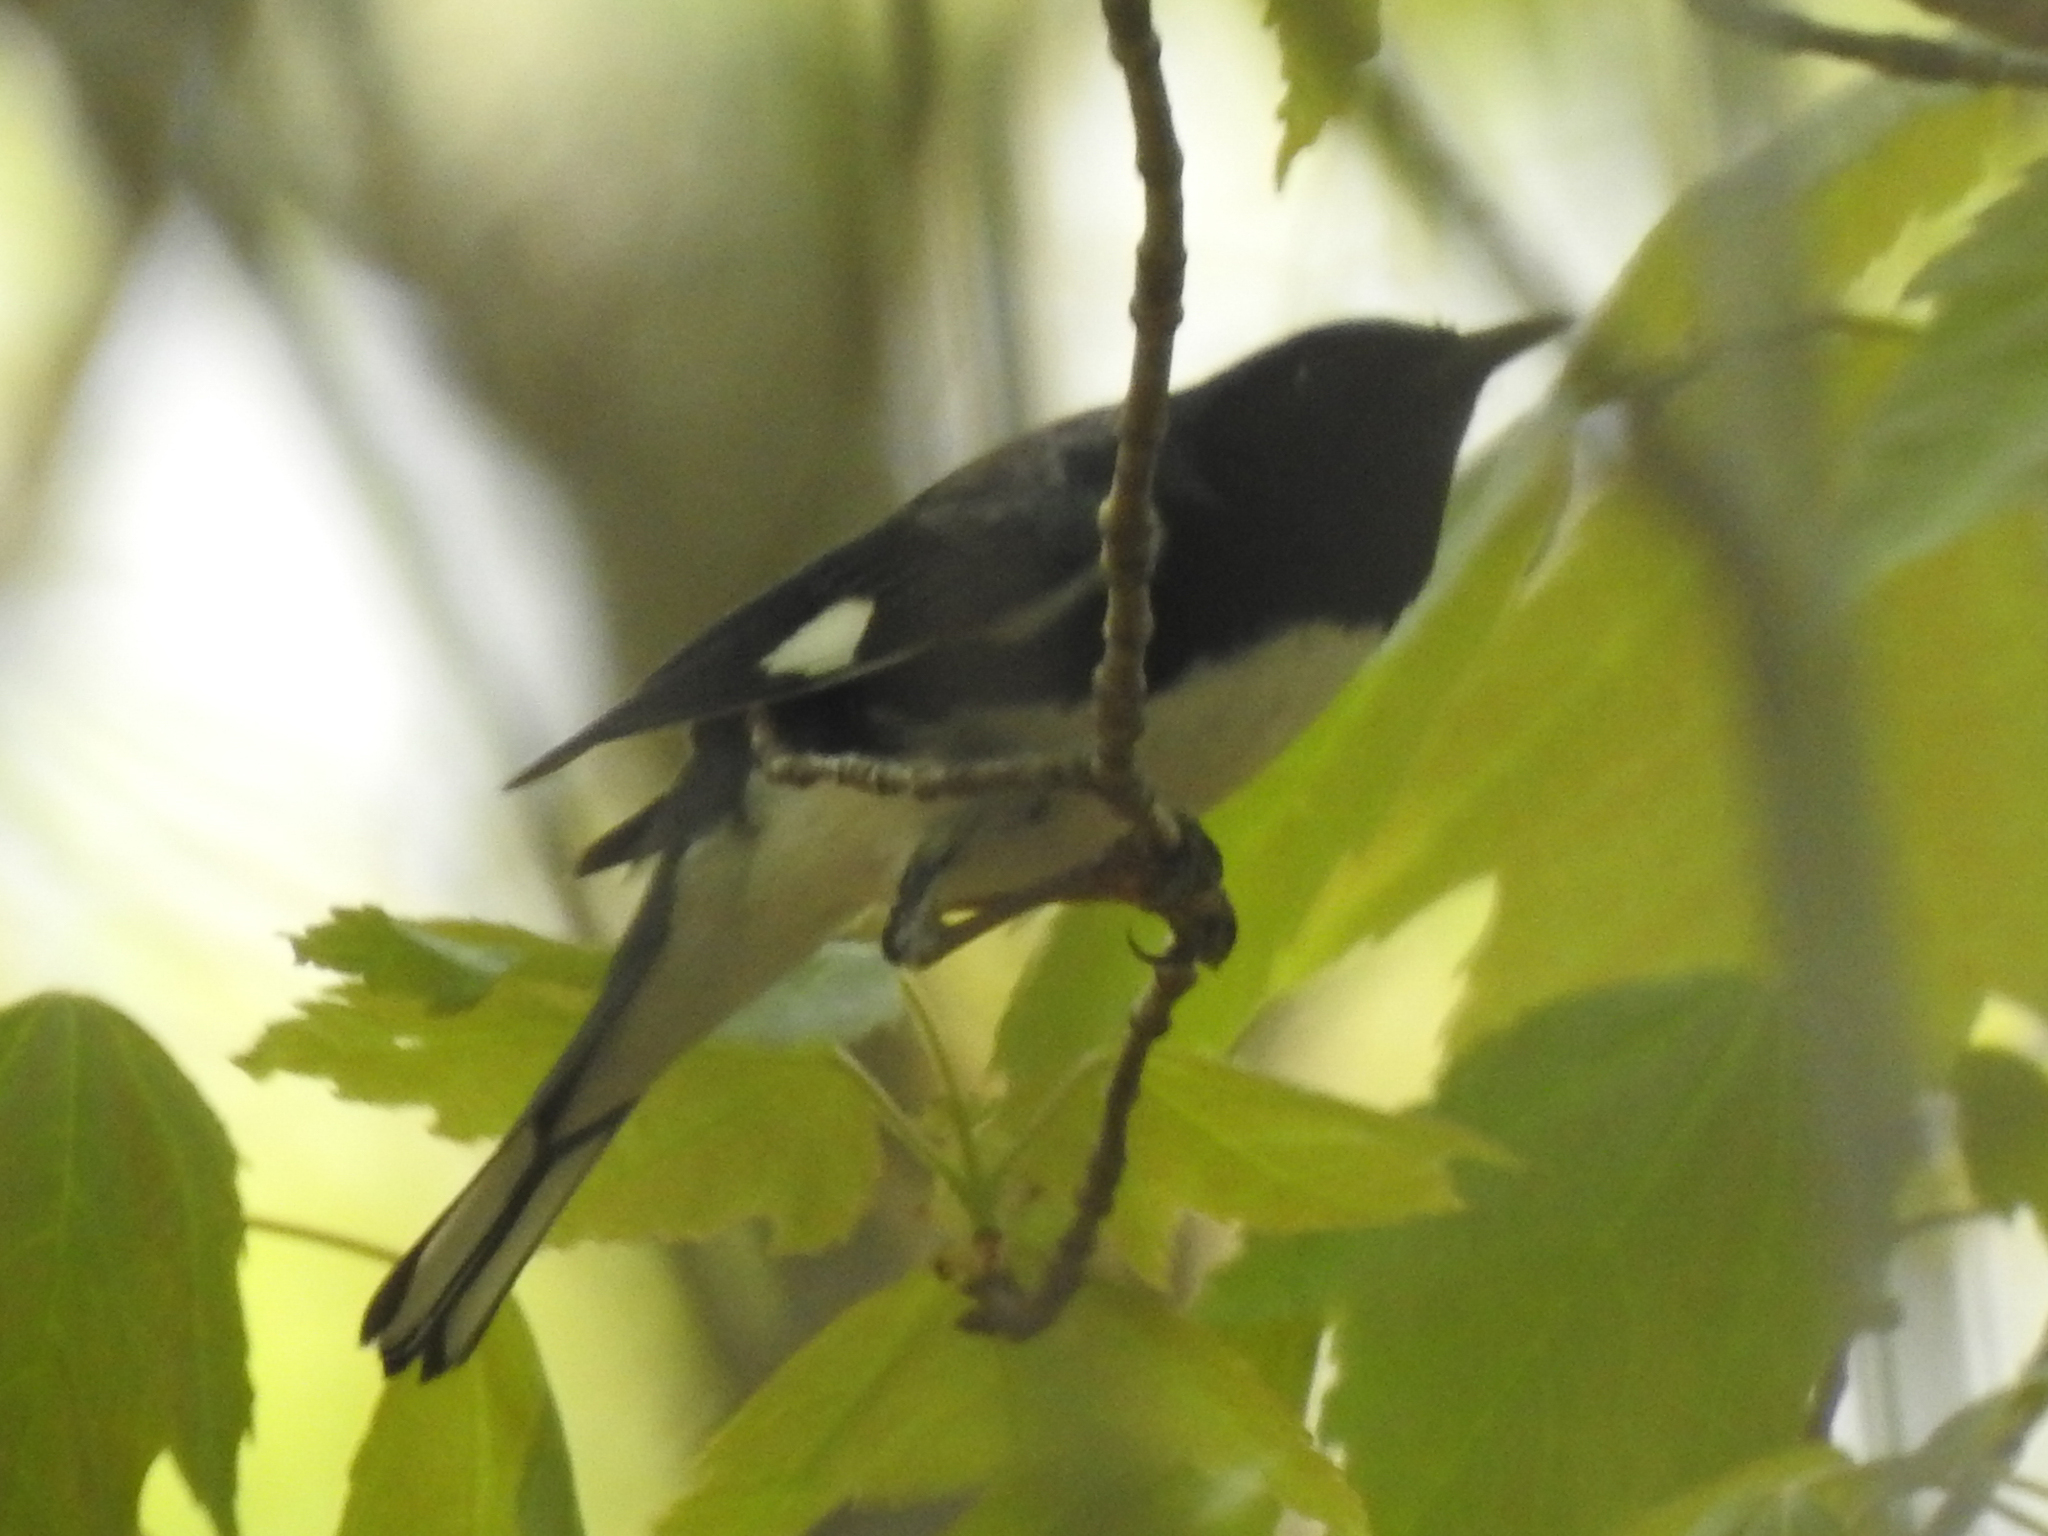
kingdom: Animalia
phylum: Chordata
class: Aves
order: Passeriformes
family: Parulidae
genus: Setophaga
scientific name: Setophaga caerulescens
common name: Black-throated blue warbler
